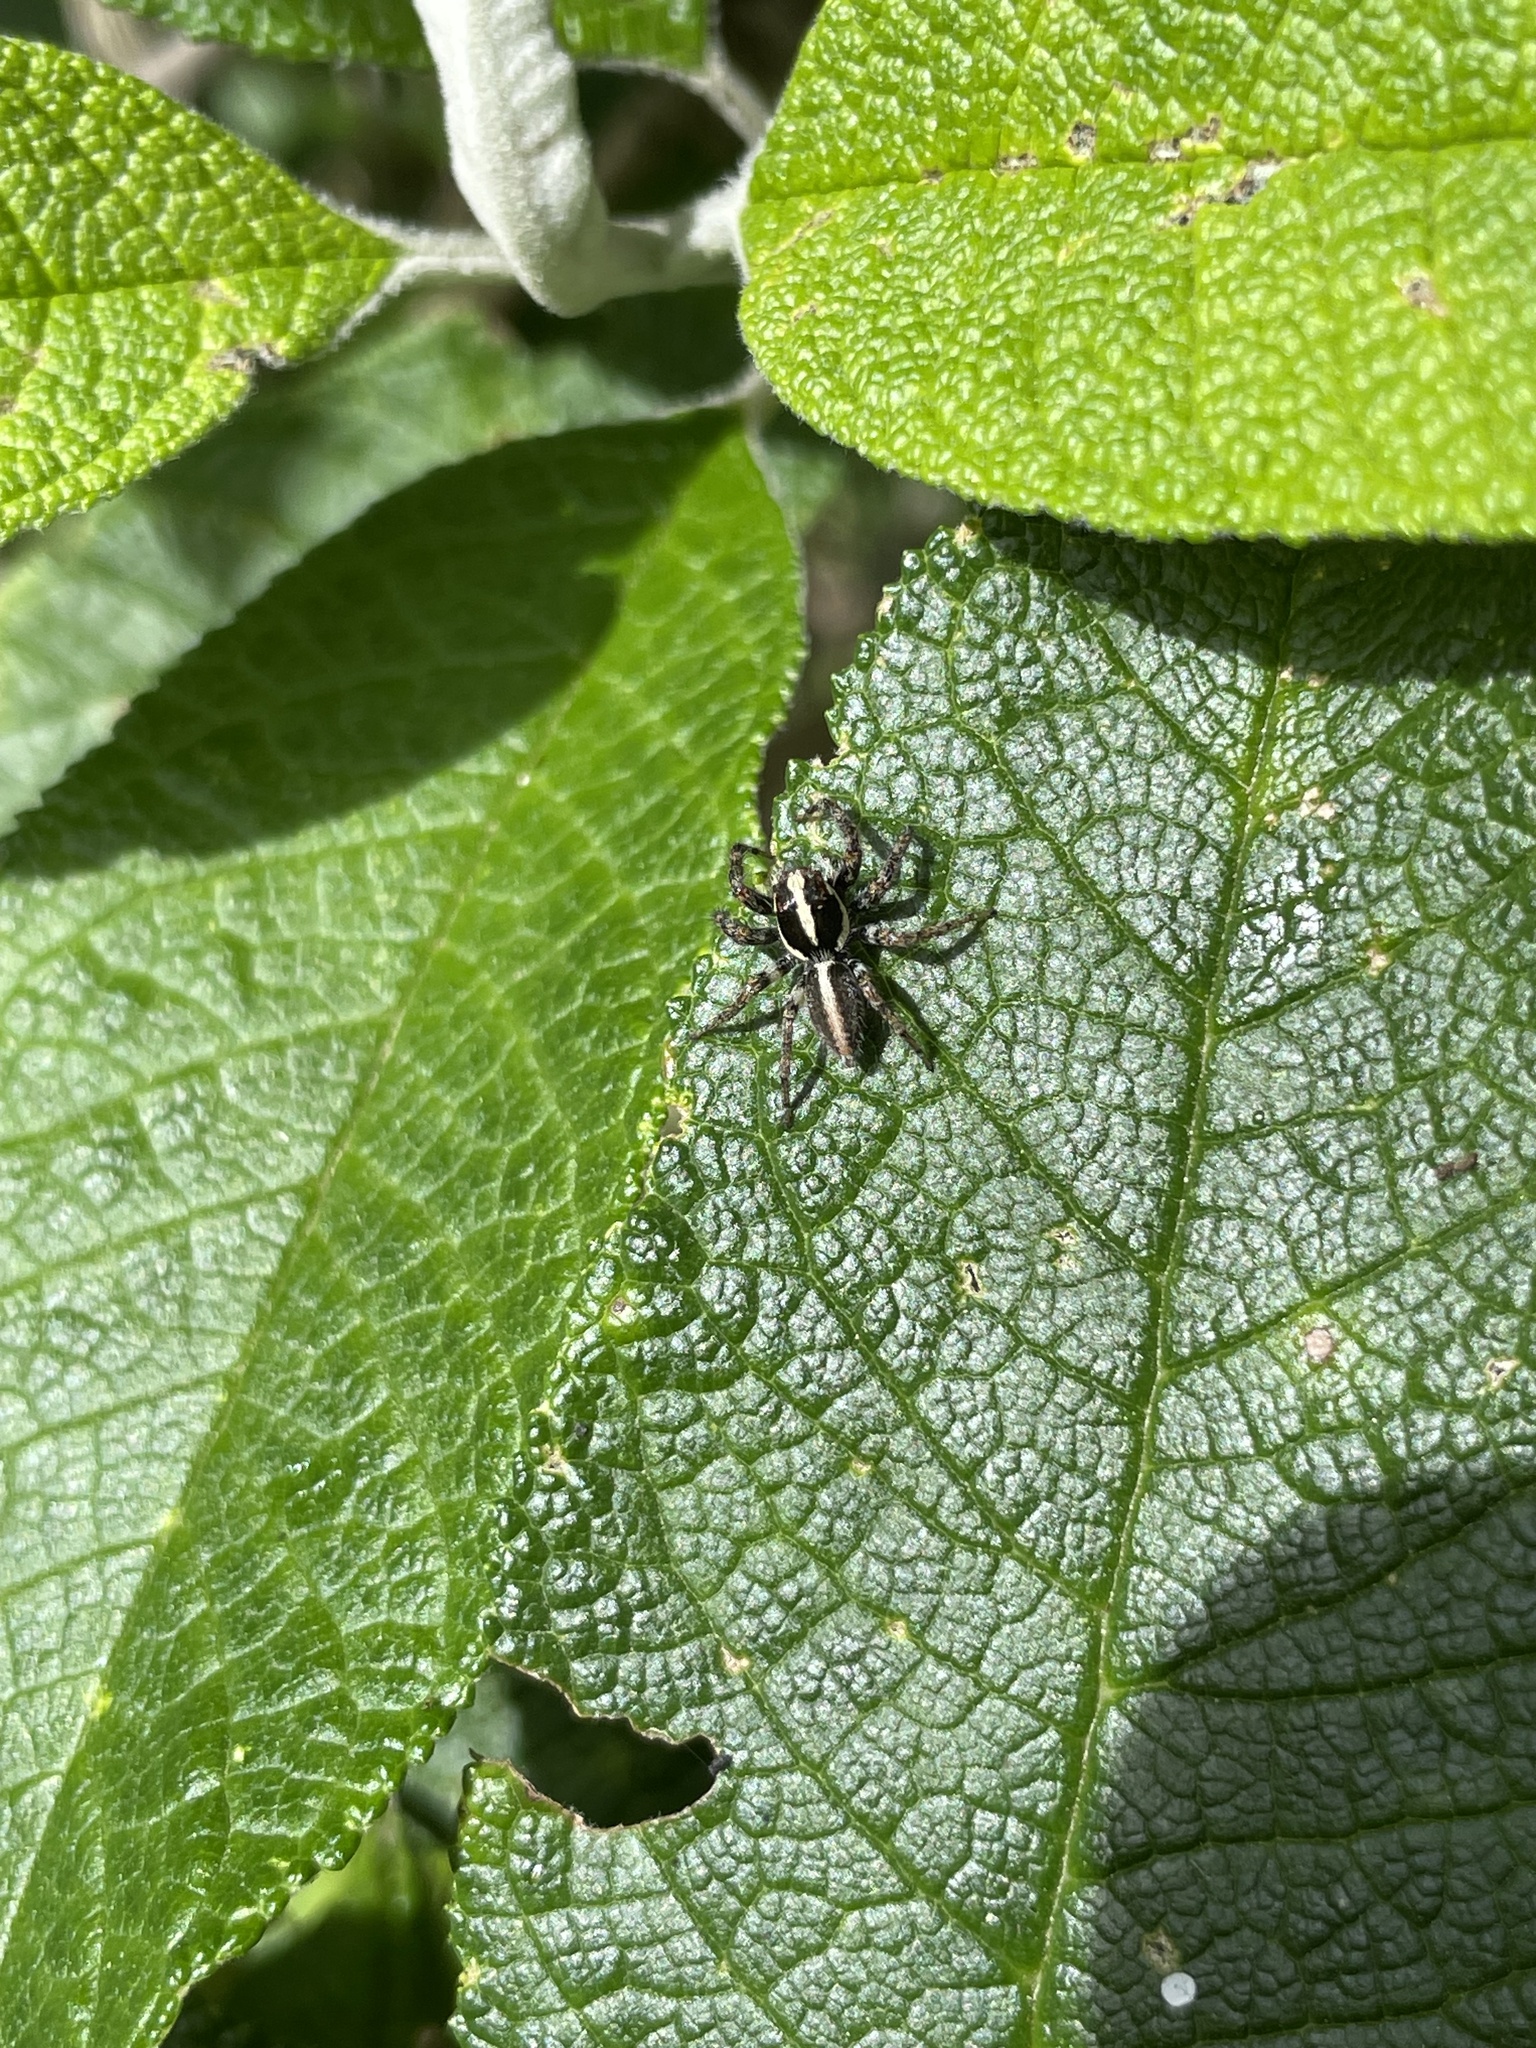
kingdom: Animalia
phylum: Arthropoda
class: Arachnida
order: Araneae
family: Salticidae
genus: Frigga
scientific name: Frigga crocuta
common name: Jumping spiders
